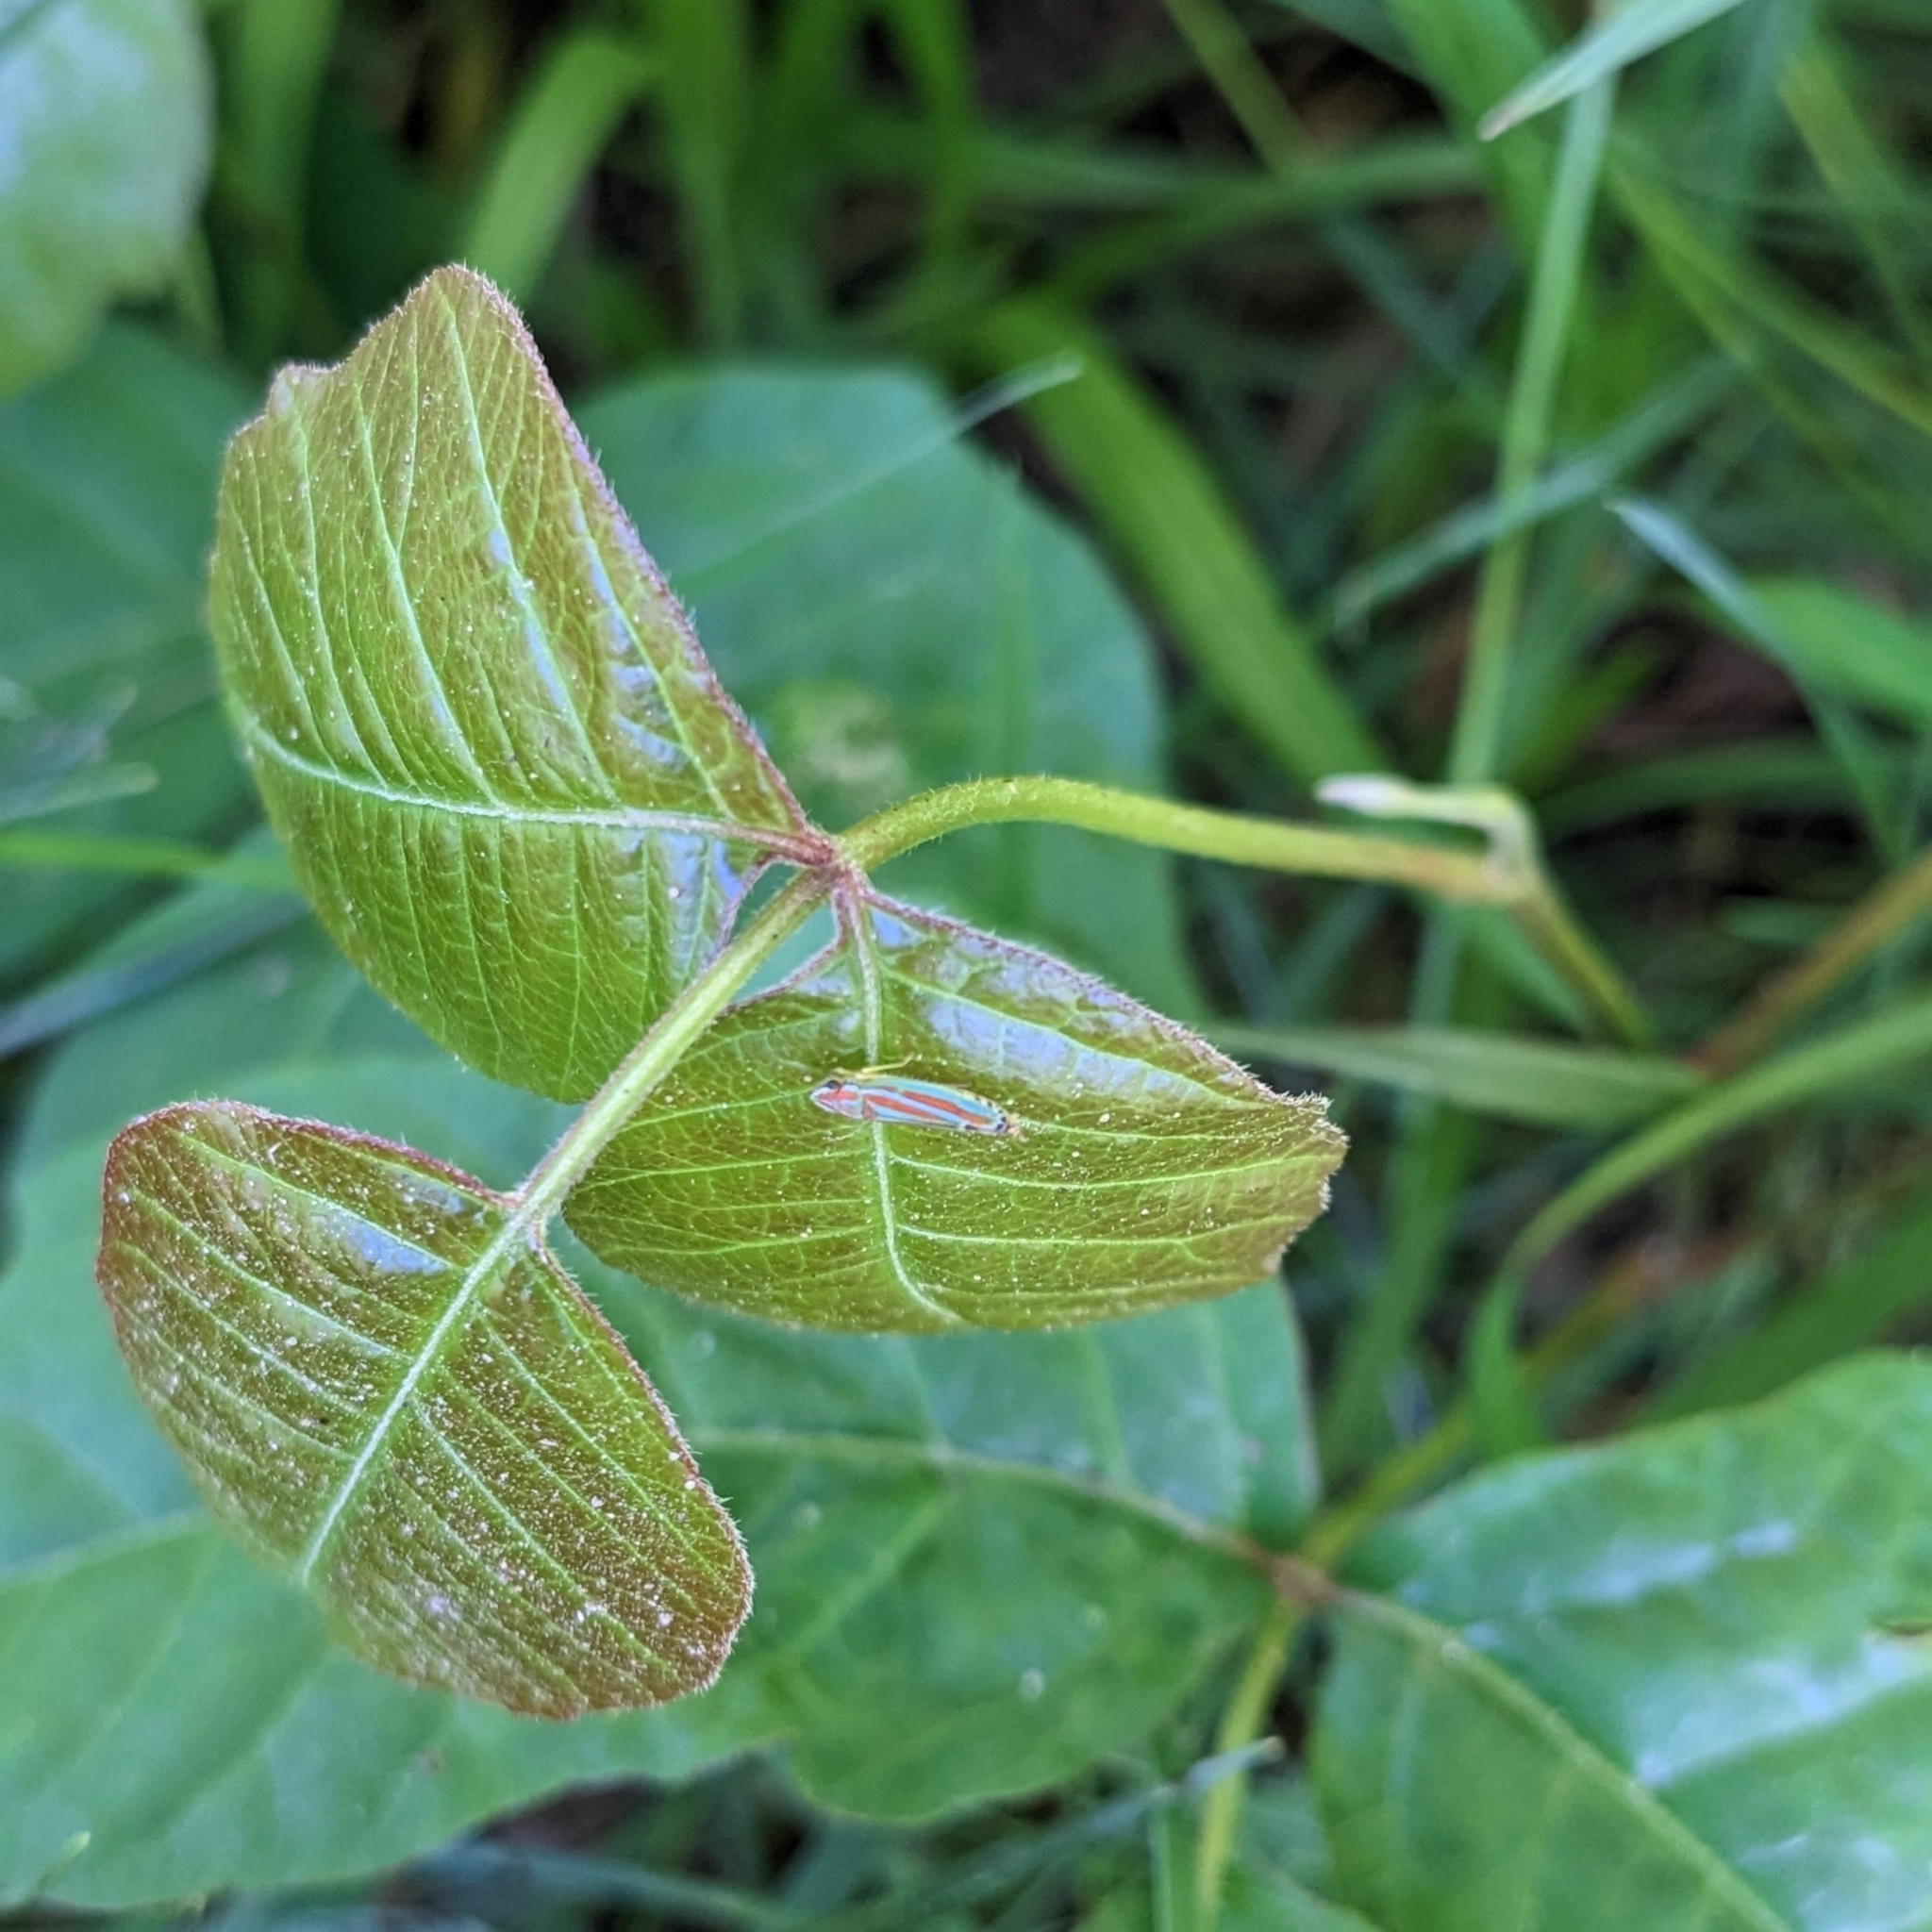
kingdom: Animalia
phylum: Arthropoda
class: Insecta
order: Hemiptera
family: Cicadellidae
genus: Graphocephala
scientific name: Graphocephala versuta
